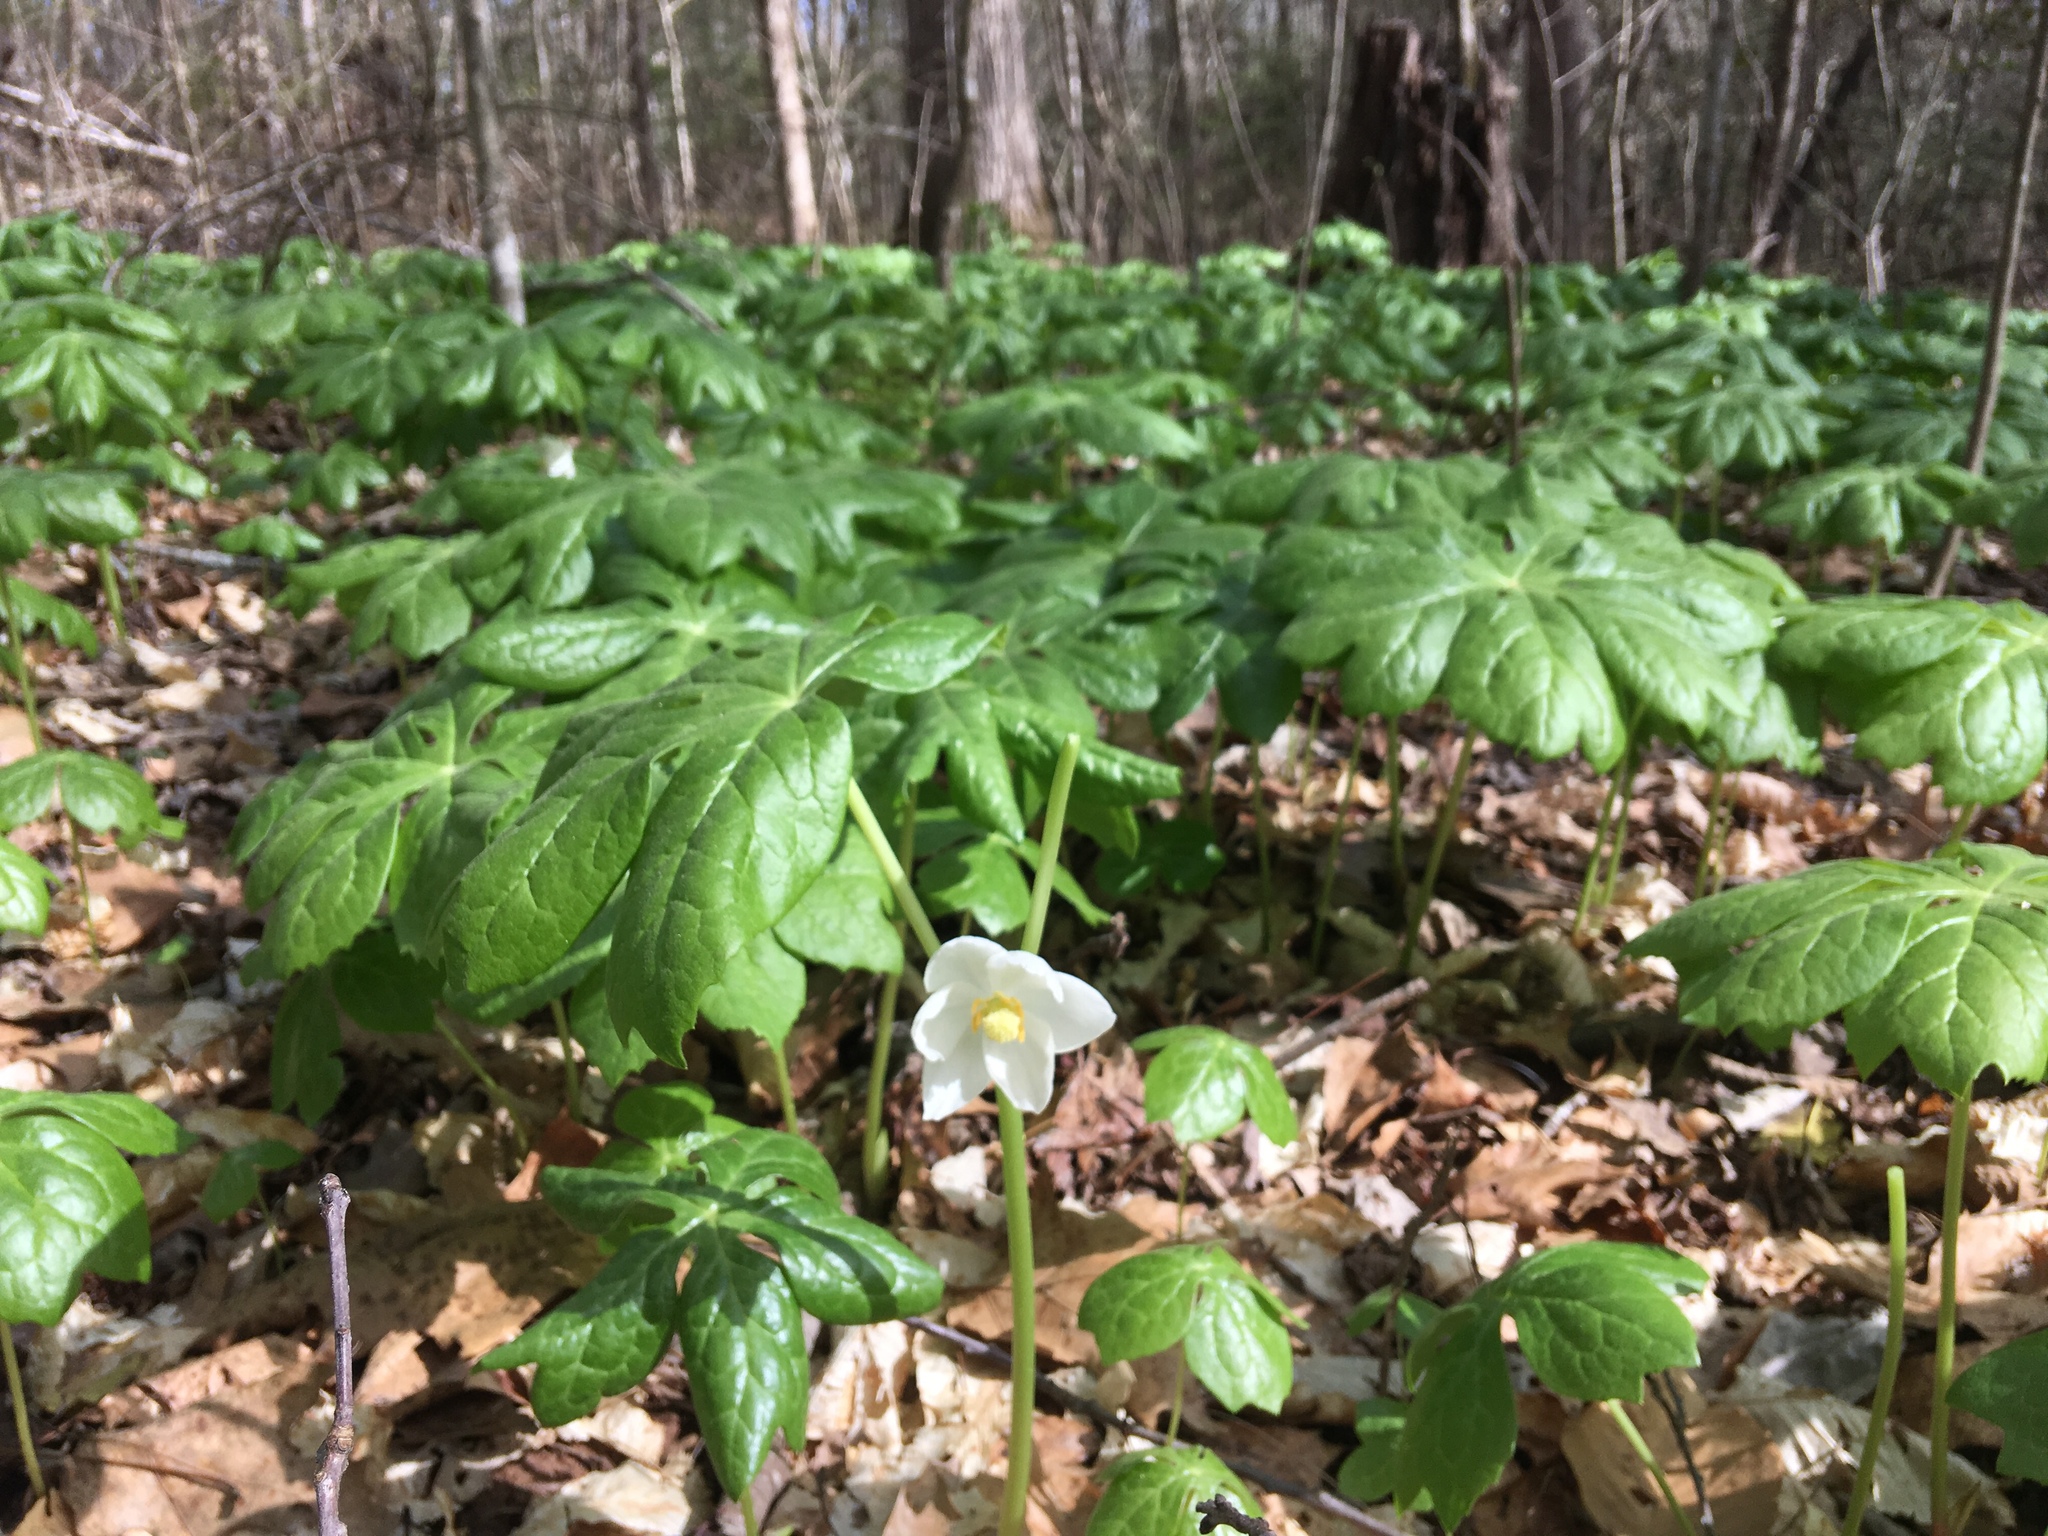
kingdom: Plantae
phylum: Tracheophyta
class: Magnoliopsida
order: Ranunculales
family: Berberidaceae
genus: Podophyllum
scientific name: Podophyllum peltatum
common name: Wild mandrake
